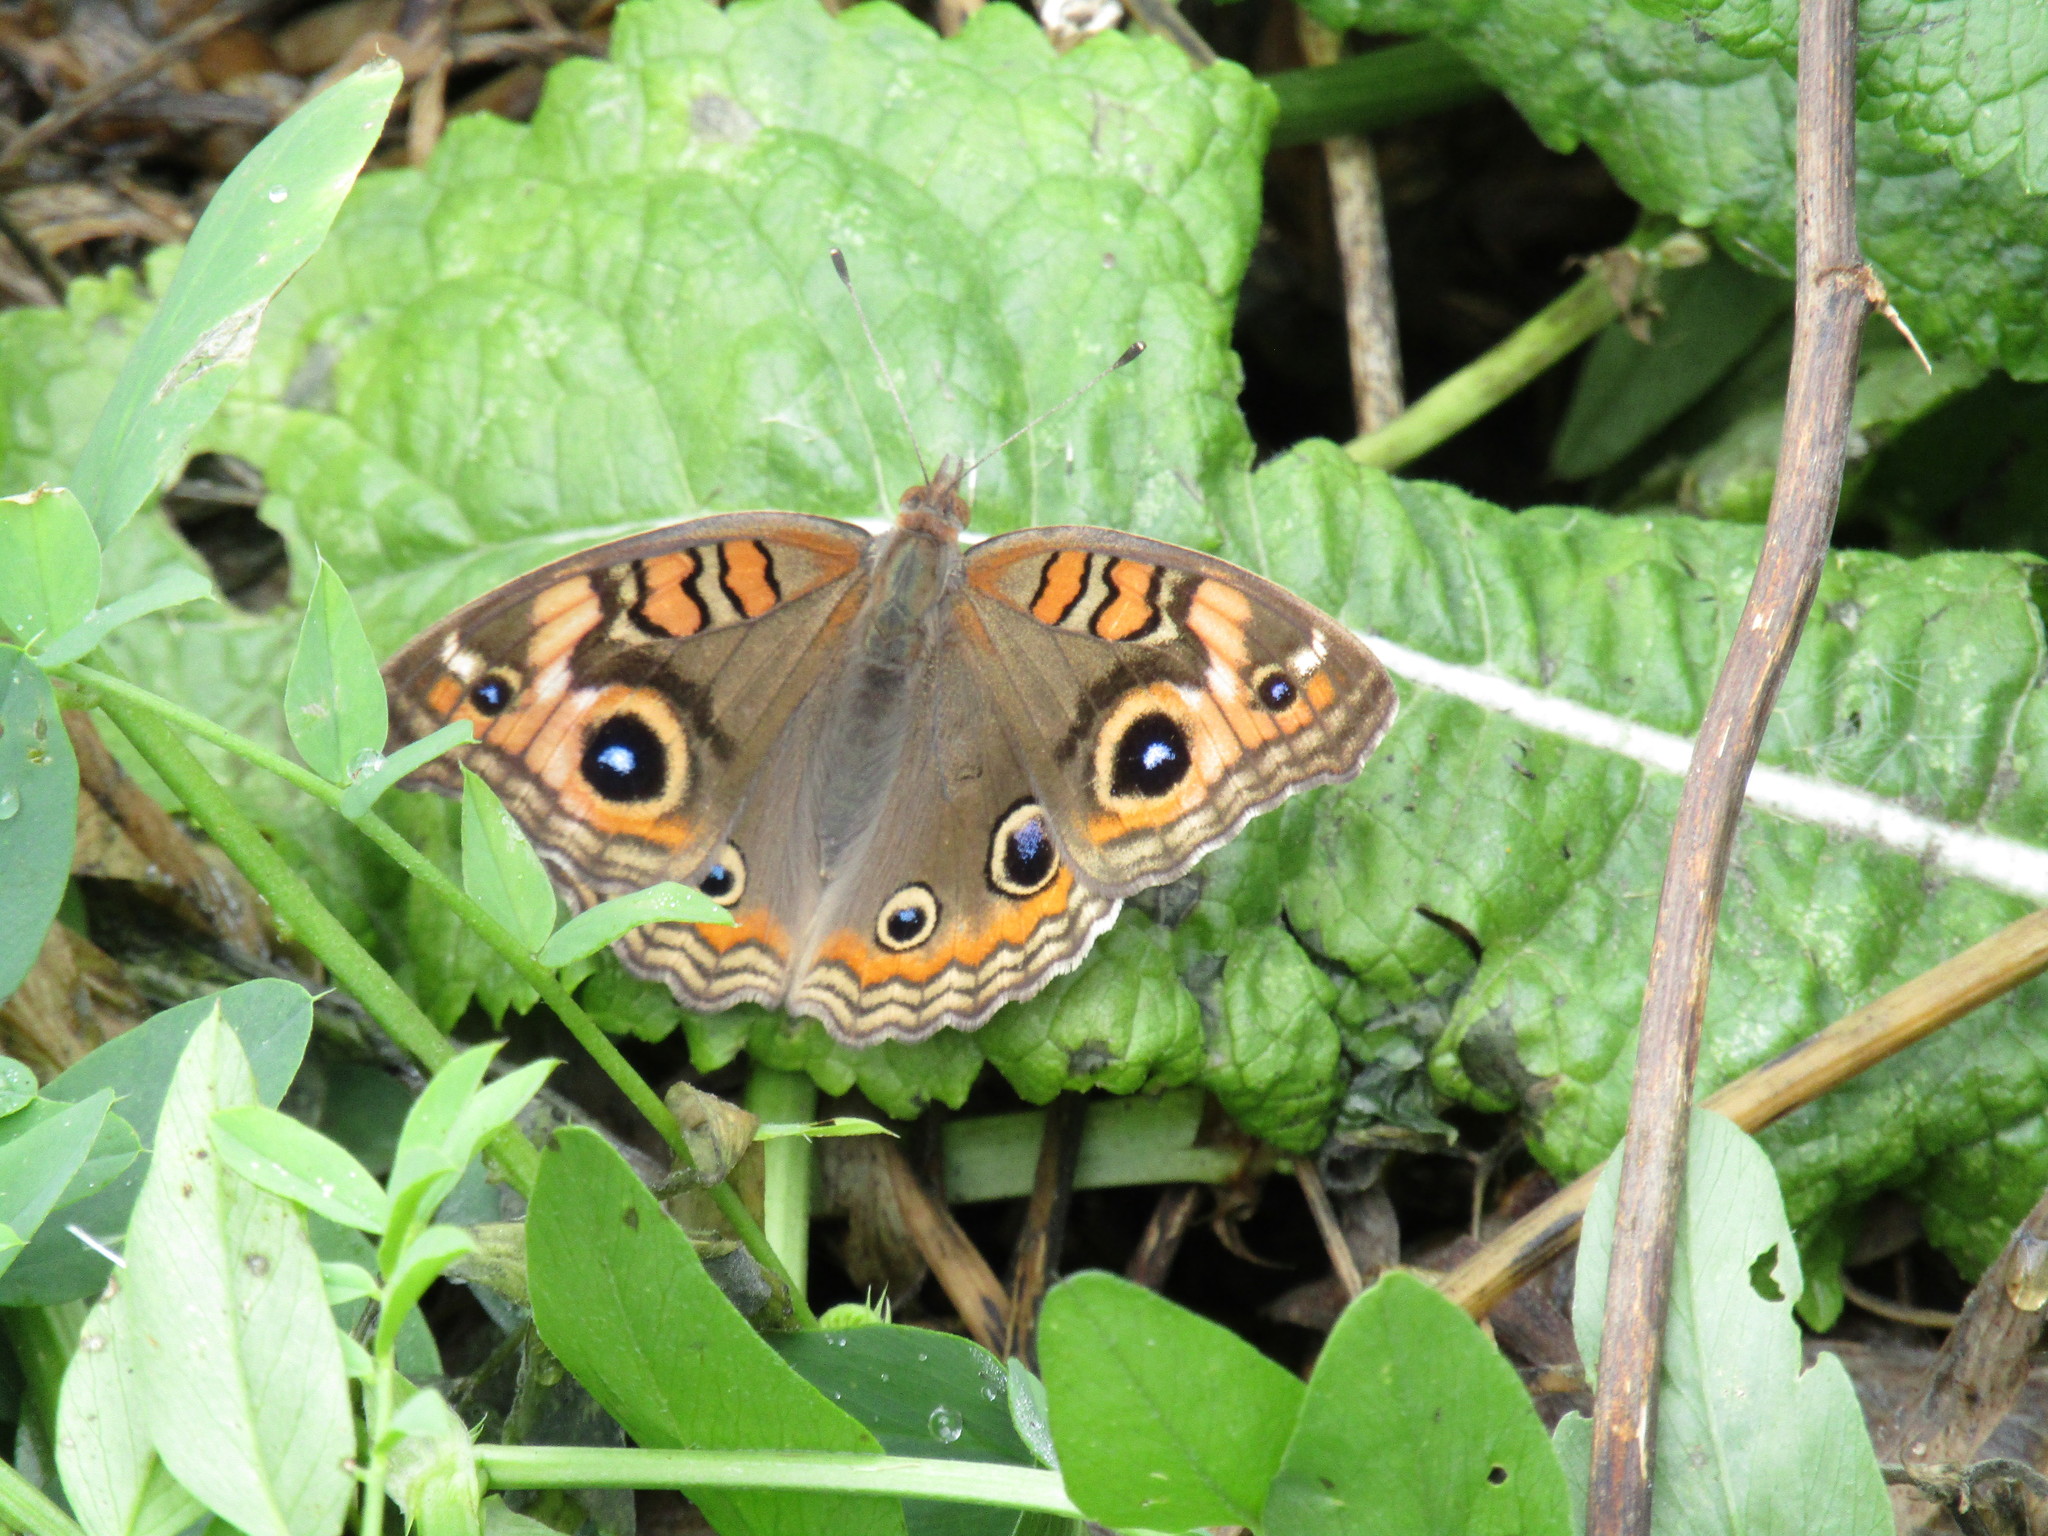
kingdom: Animalia
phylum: Arthropoda
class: Insecta
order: Lepidoptera
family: Nymphalidae
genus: Junonia
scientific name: Junonia lavinia
